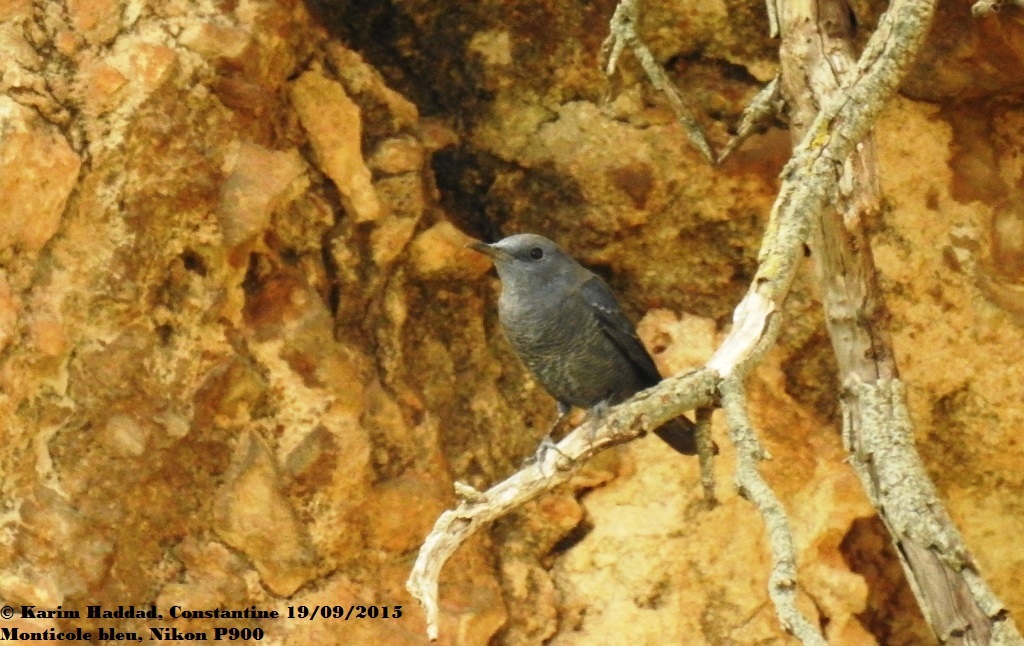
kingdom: Animalia
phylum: Chordata
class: Aves
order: Passeriformes
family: Muscicapidae
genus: Monticola
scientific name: Monticola solitarius
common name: Blue rock thrush
